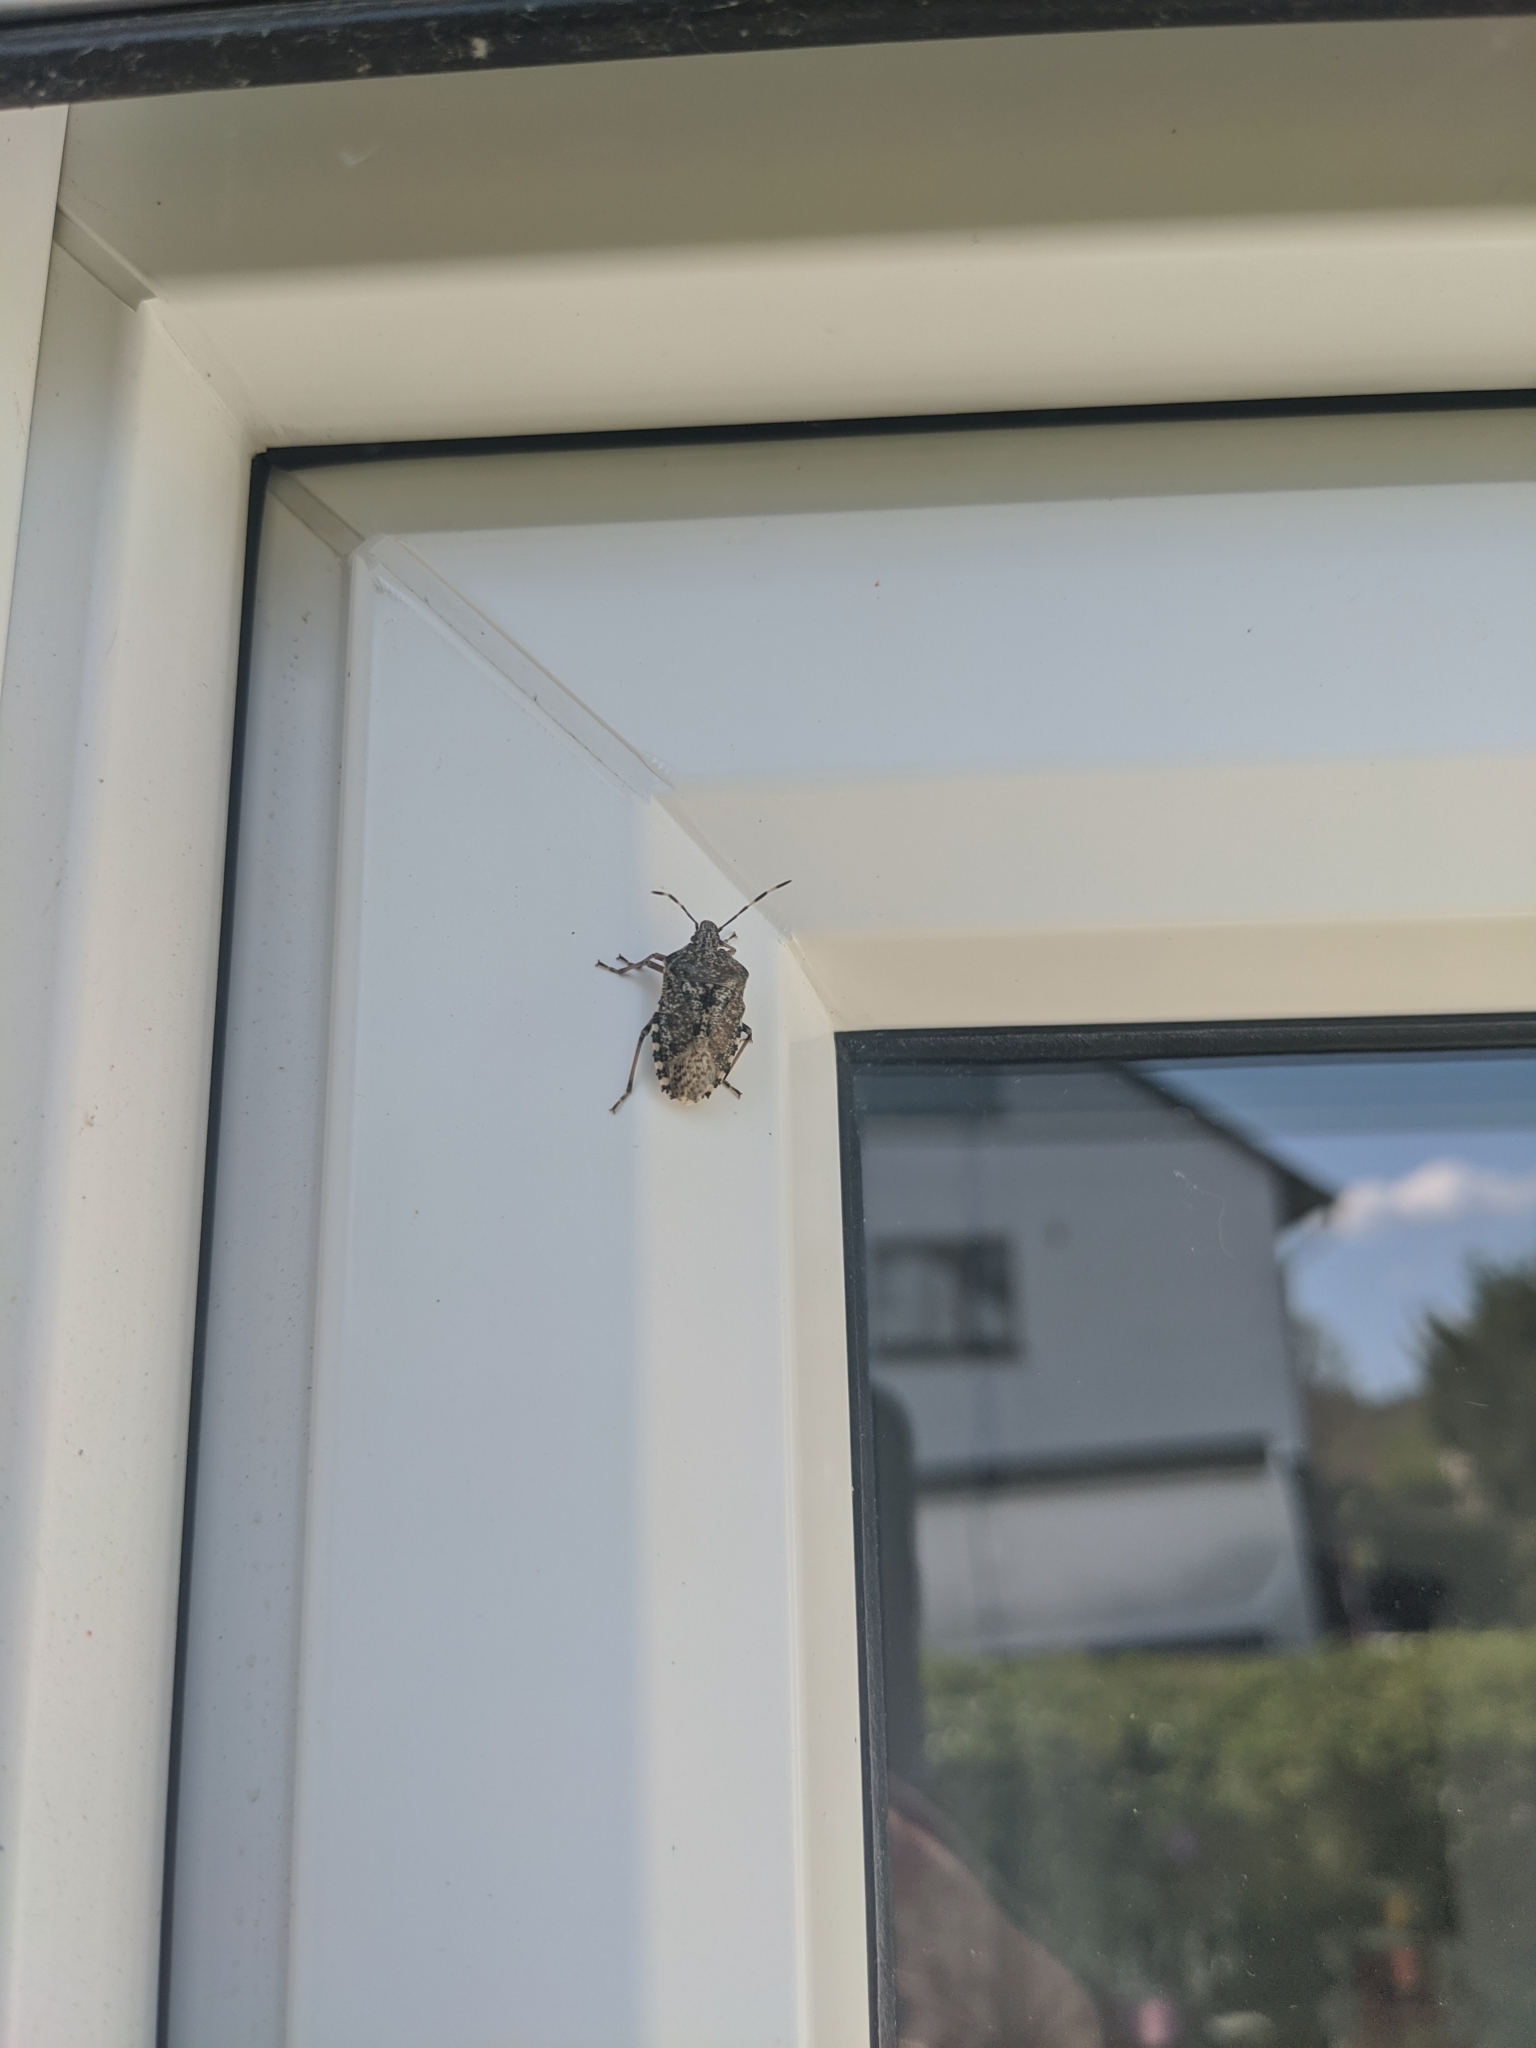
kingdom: Animalia
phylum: Arthropoda
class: Insecta
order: Hemiptera
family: Pentatomidae
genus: Rhaphigaster
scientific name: Rhaphigaster nebulosa
